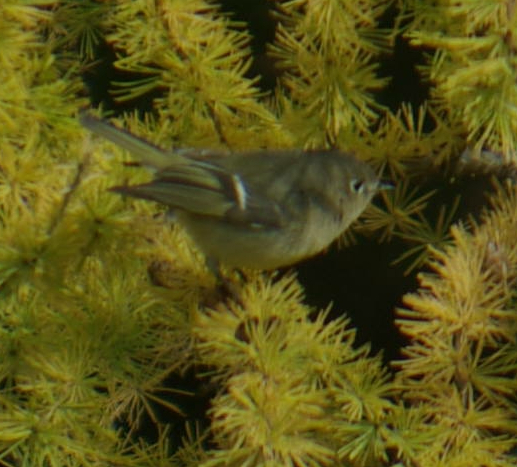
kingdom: Animalia
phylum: Chordata
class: Aves
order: Passeriformes
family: Regulidae
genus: Regulus
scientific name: Regulus calendula
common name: Ruby-crowned kinglet
